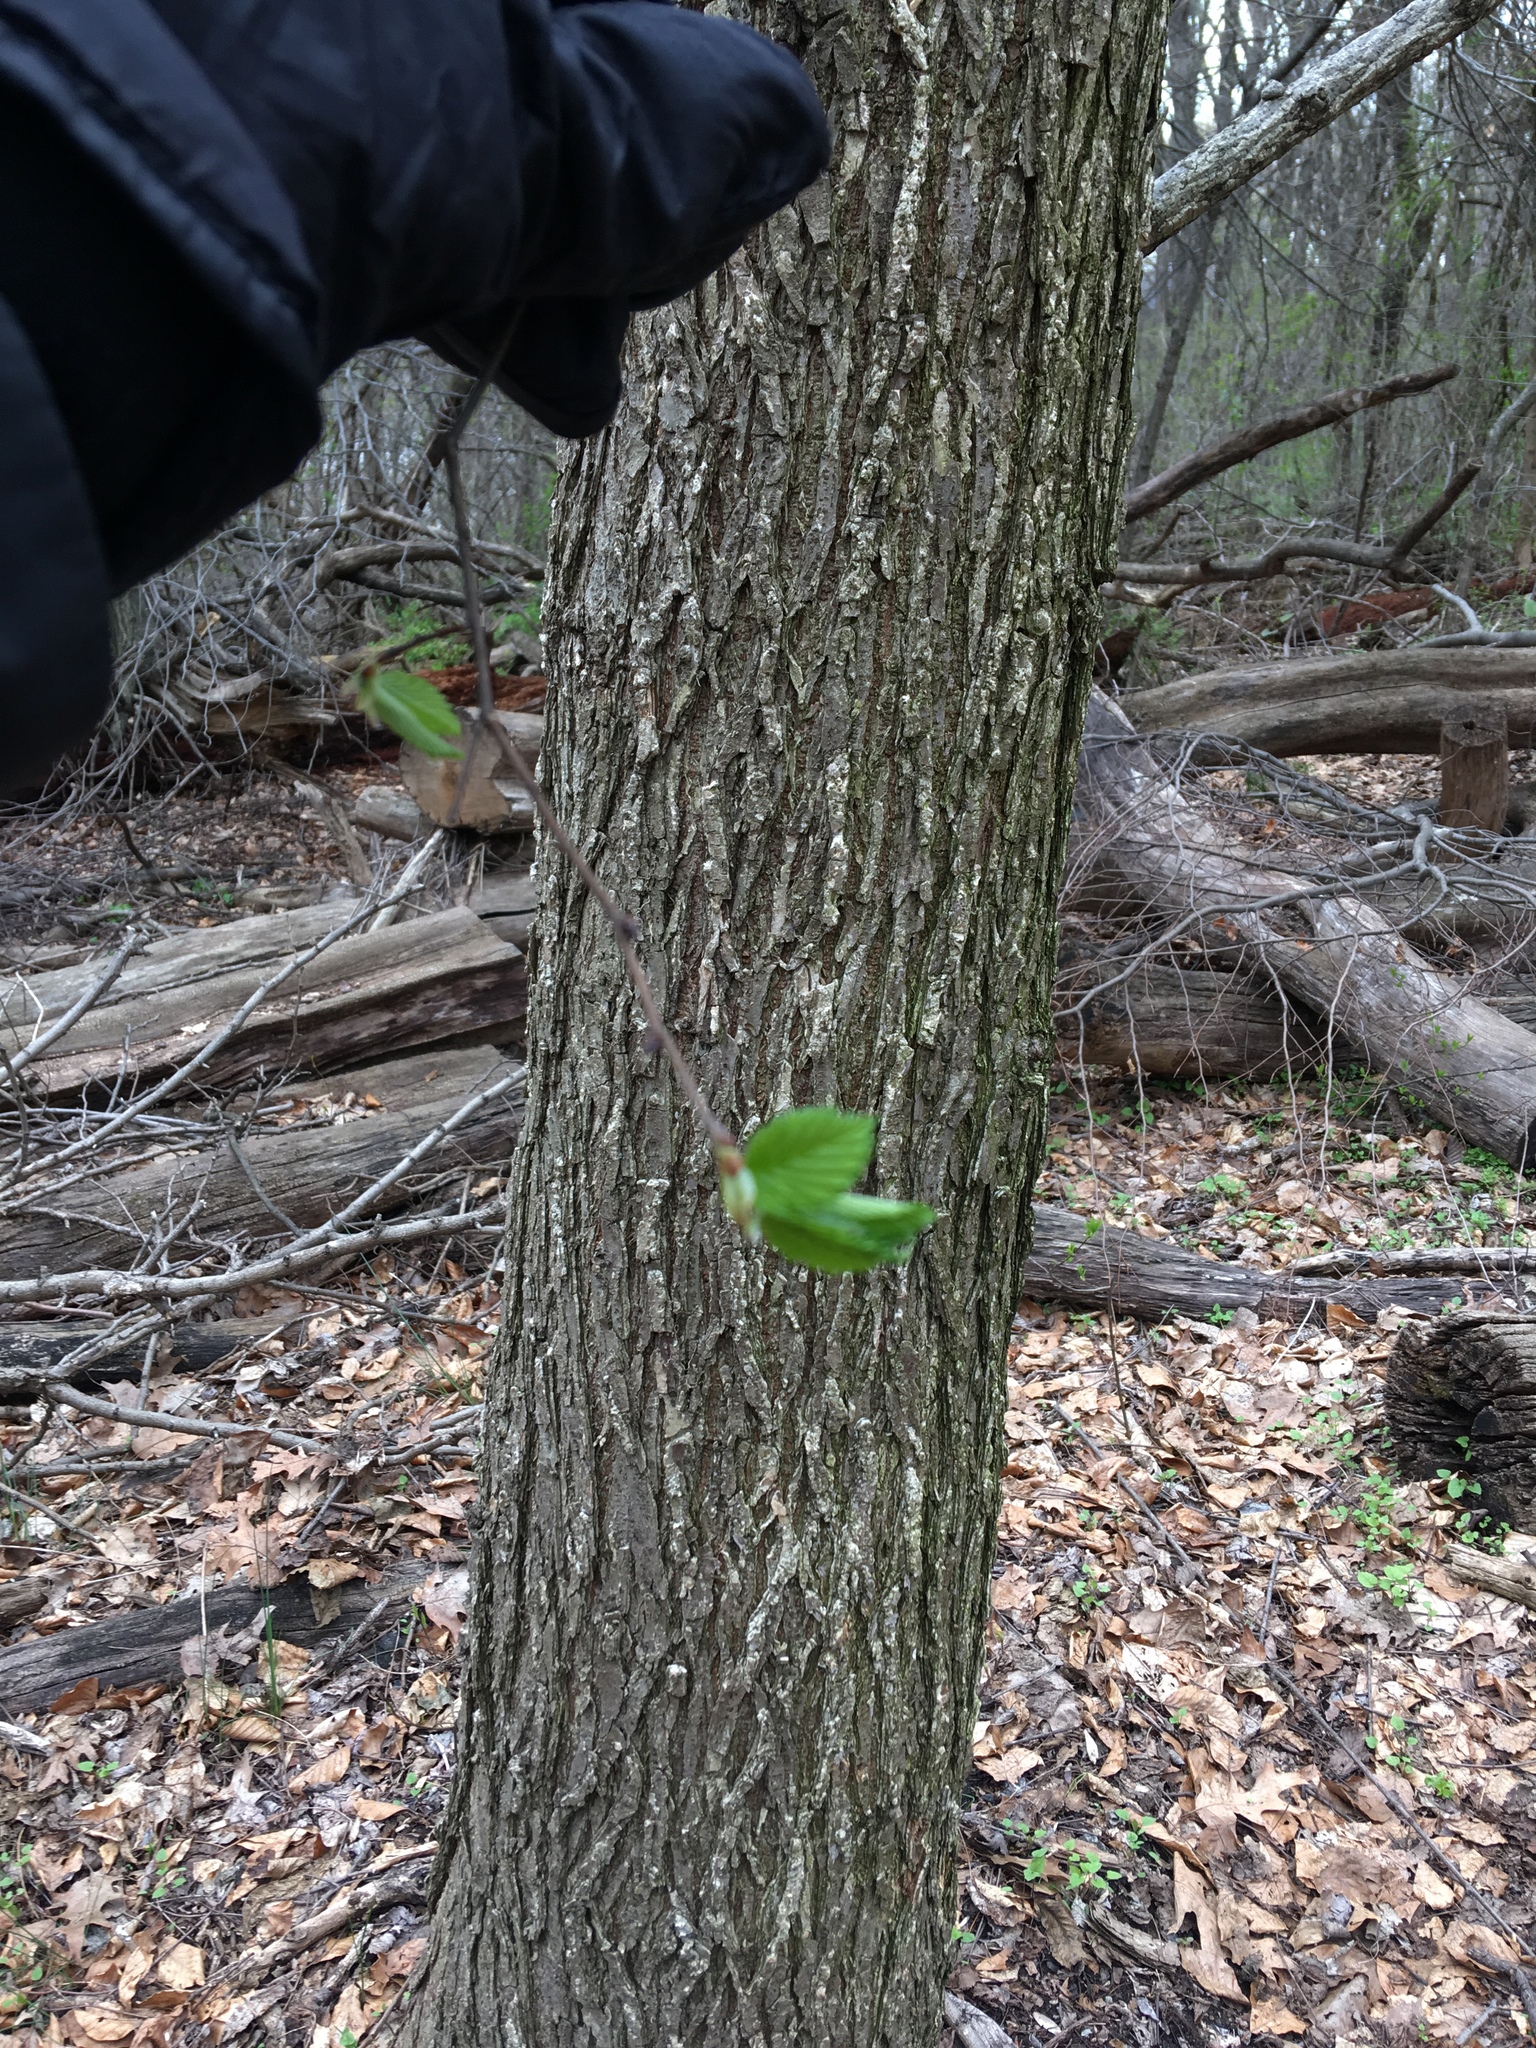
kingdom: Plantae
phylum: Tracheophyta
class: Magnoliopsida
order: Rosales
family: Ulmaceae
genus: Ulmus
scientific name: Ulmus americana
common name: American elm
